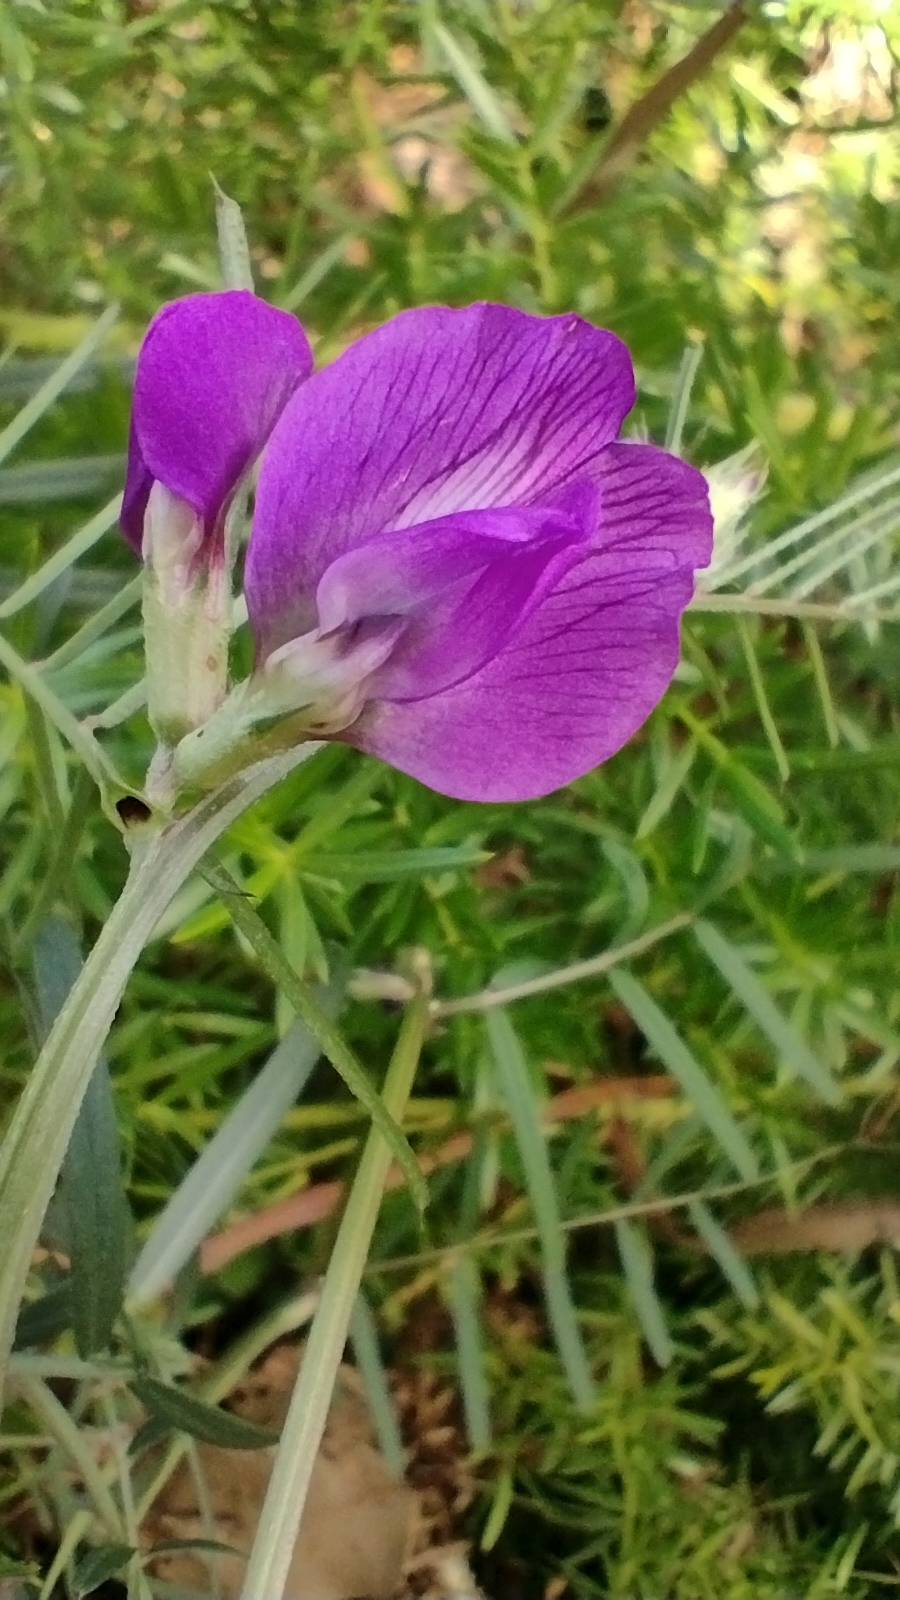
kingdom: Plantae
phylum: Tracheophyta
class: Magnoliopsida
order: Fabales
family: Fabaceae
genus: Vicia
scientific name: Vicia sativa
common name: Garden vetch
